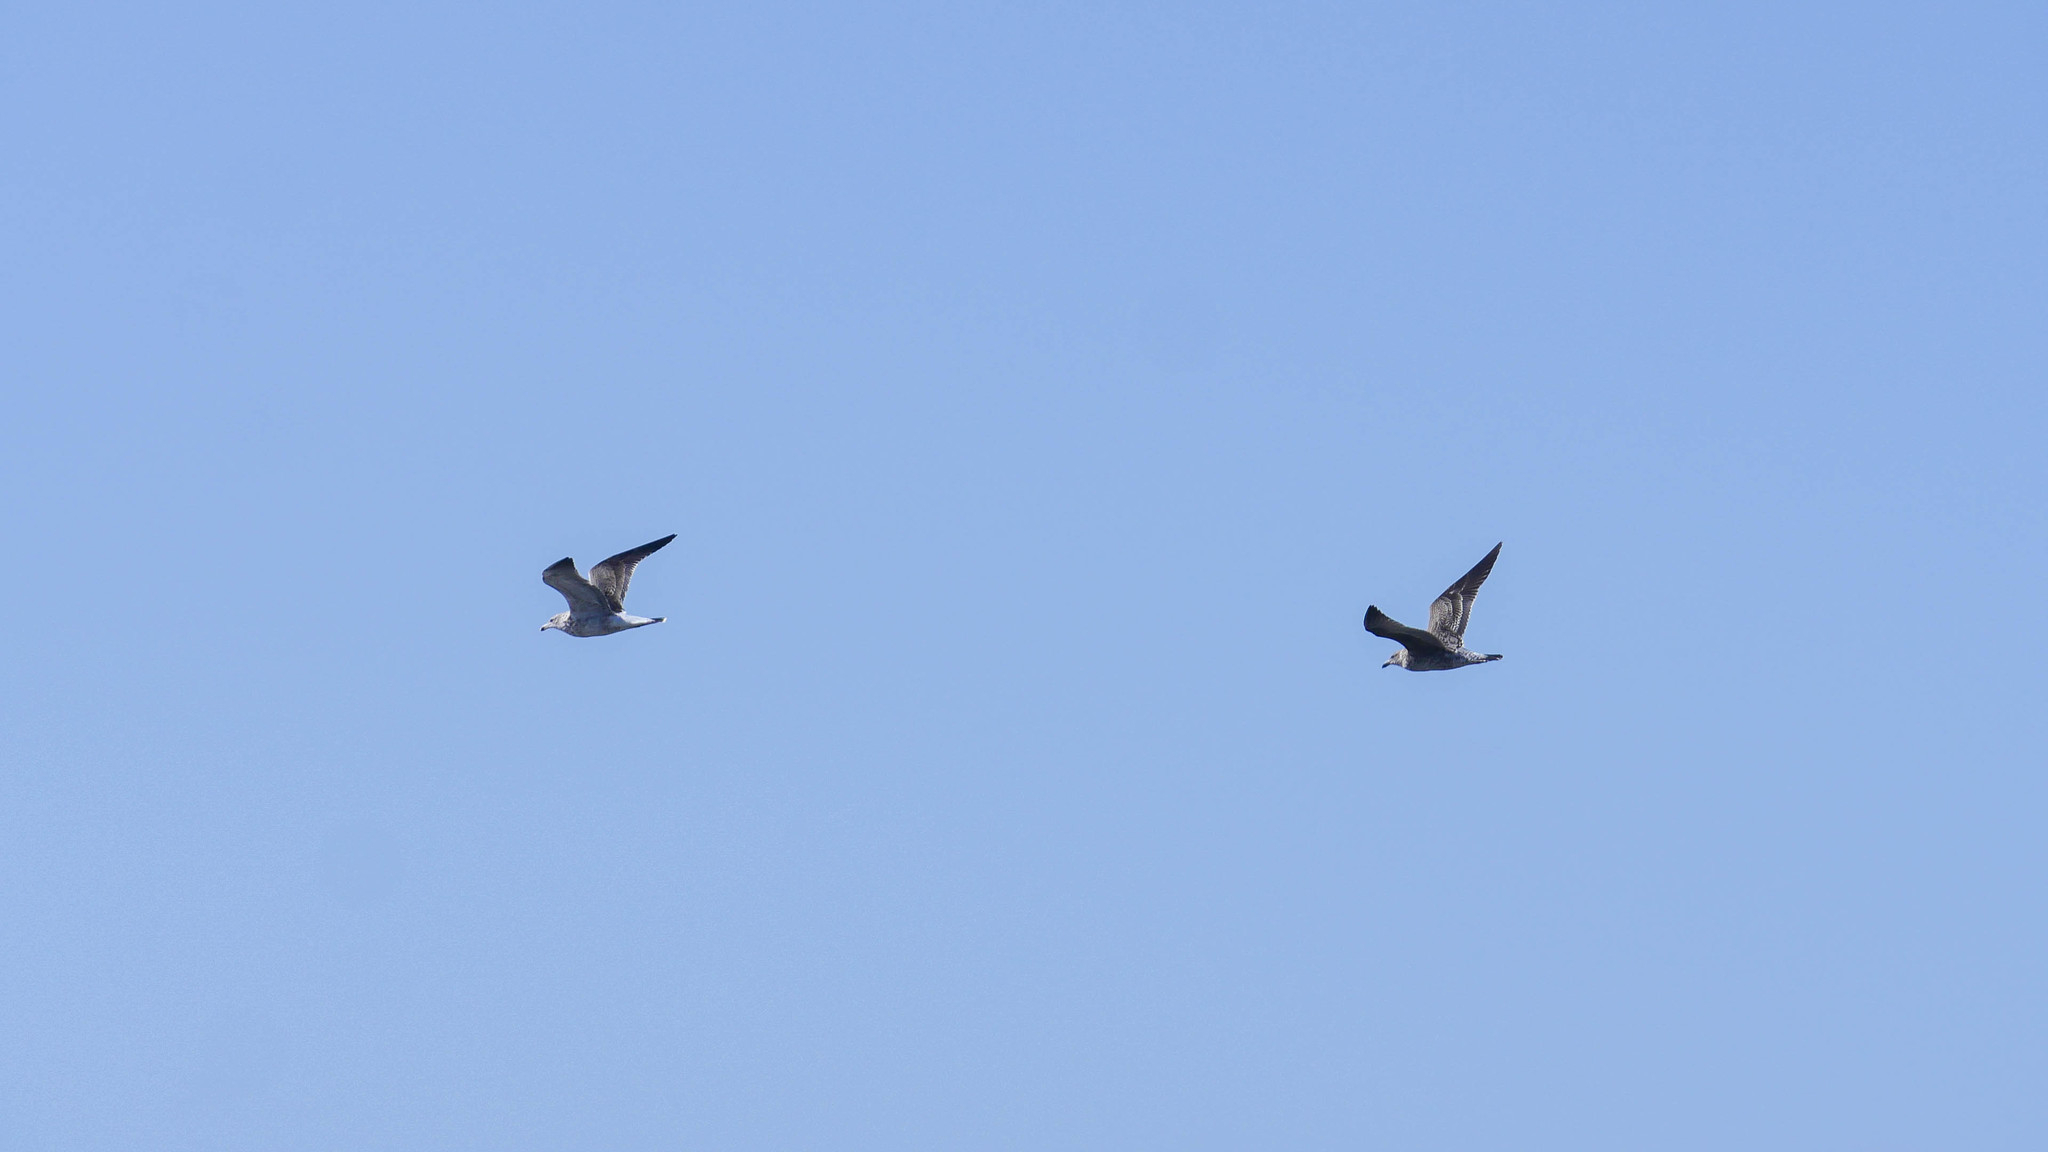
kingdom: Animalia
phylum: Chordata
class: Aves
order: Charadriiformes
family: Laridae
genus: Larus
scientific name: Larus dominicanus
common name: Kelp gull
